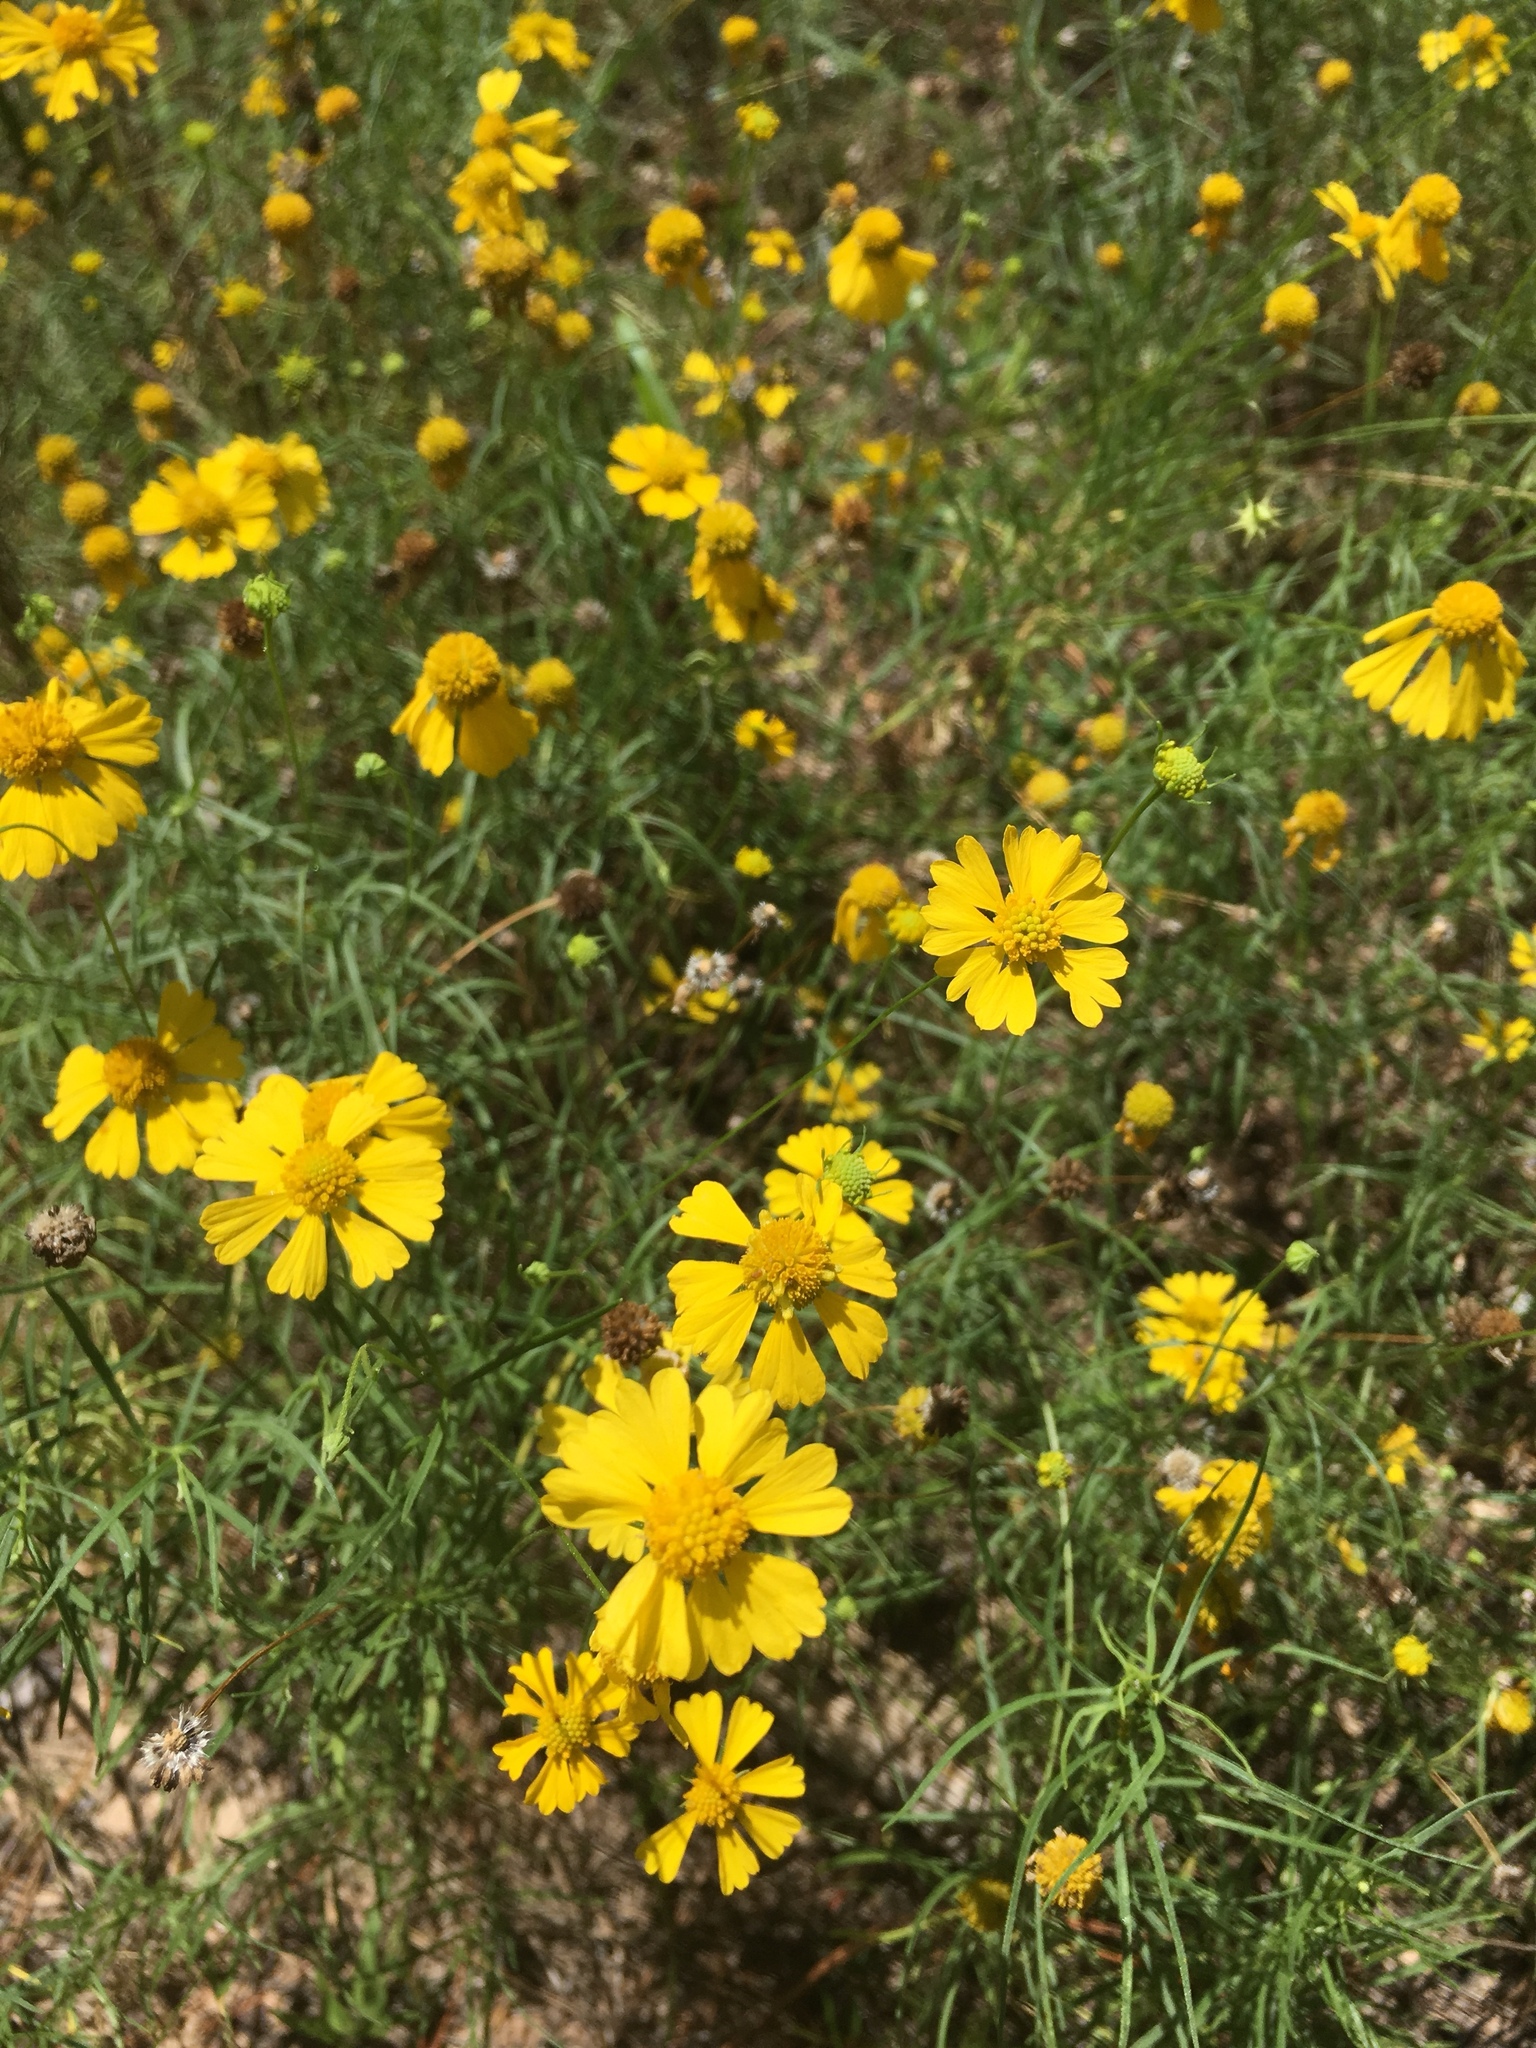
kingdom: Plantae
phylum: Tracheophyta
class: Magnoliopsida
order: Asterales
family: Asteraceae
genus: Helenium
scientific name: Helenium amarum
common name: Bitter sneezeweed
